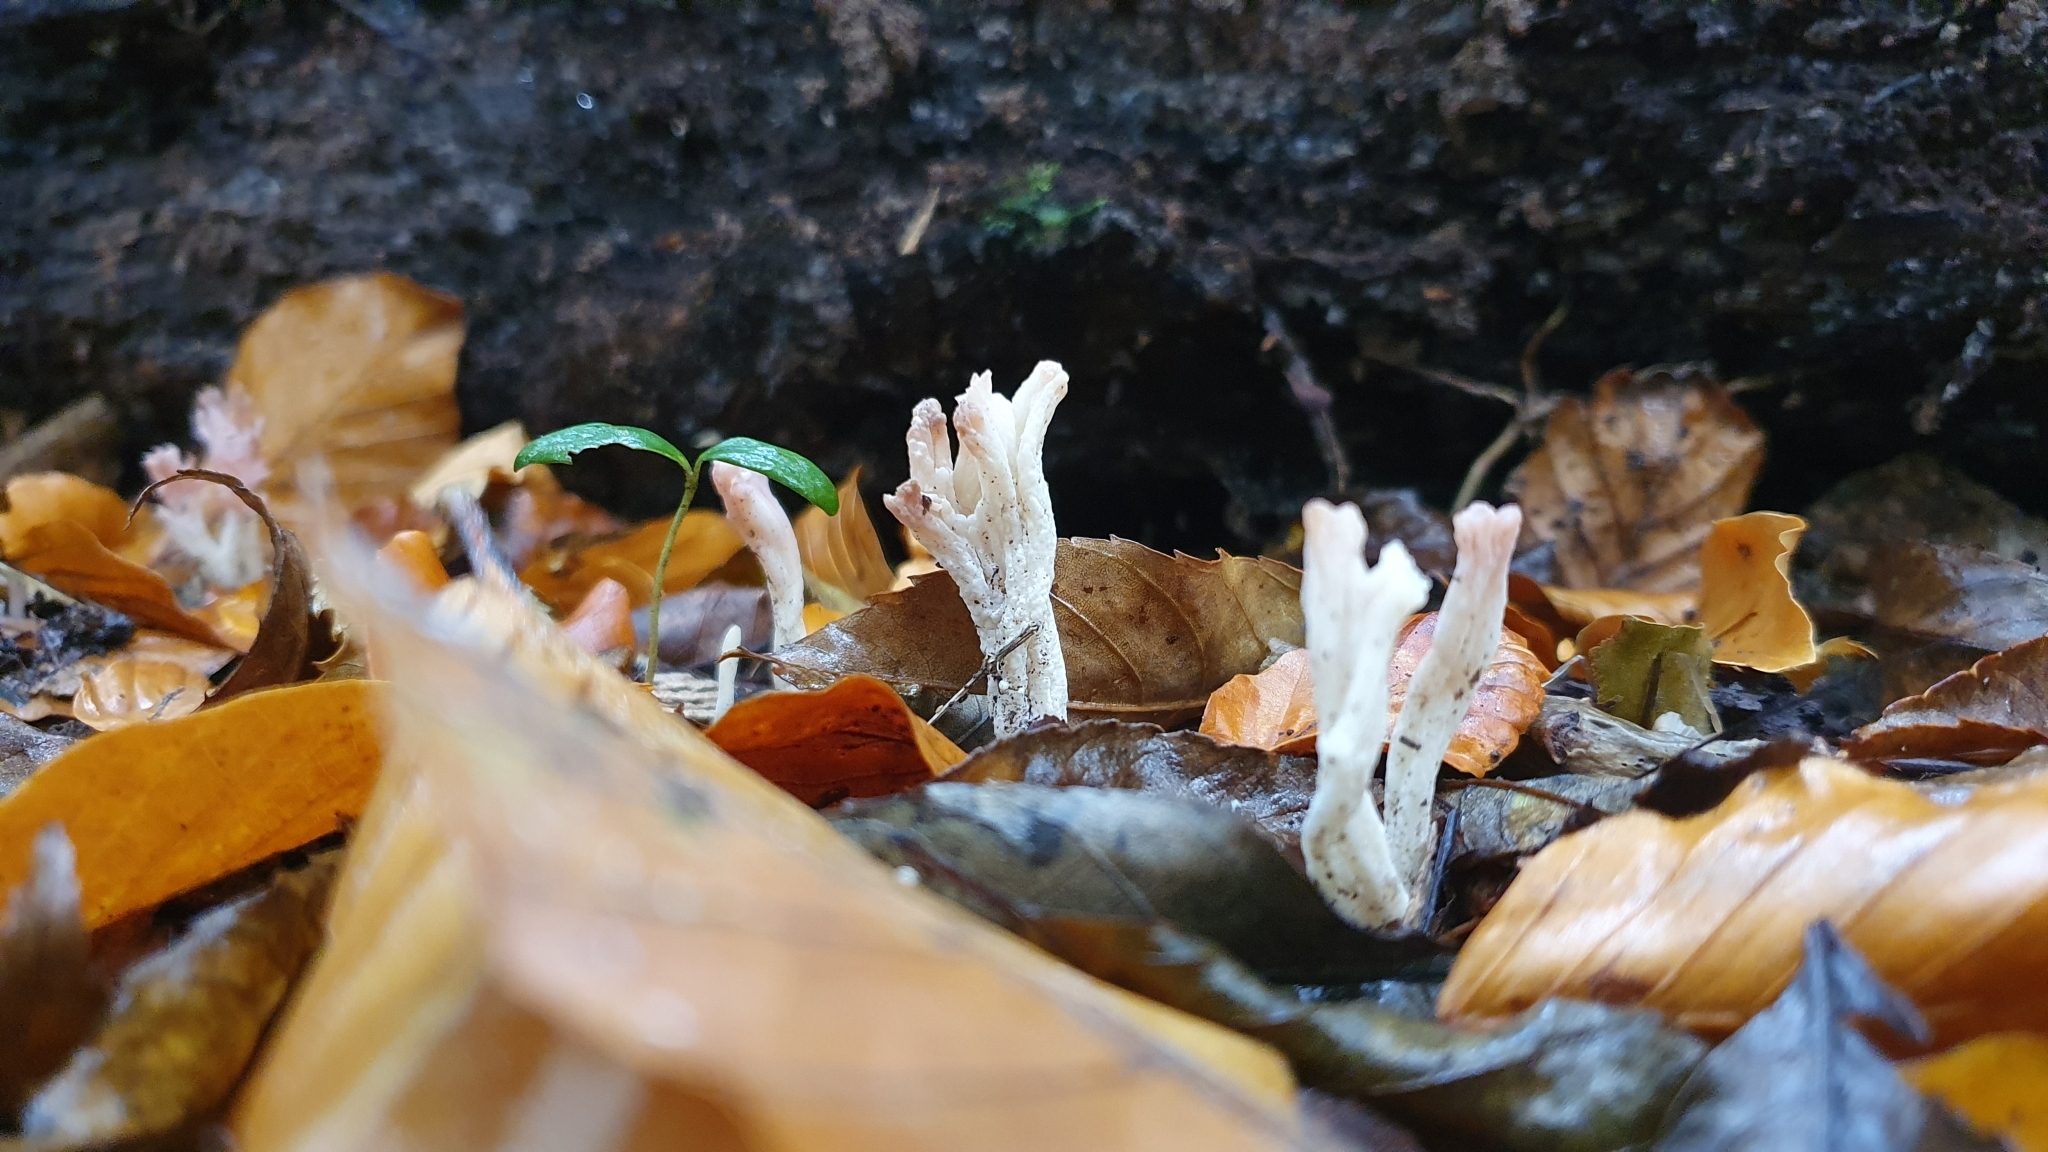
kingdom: Fungi
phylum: Basidiomycota
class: Agaricomycetes
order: Cantharellales
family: Hydnaceae
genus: Clavulina
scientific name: Clavulina rugosa
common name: Wrinkled club
